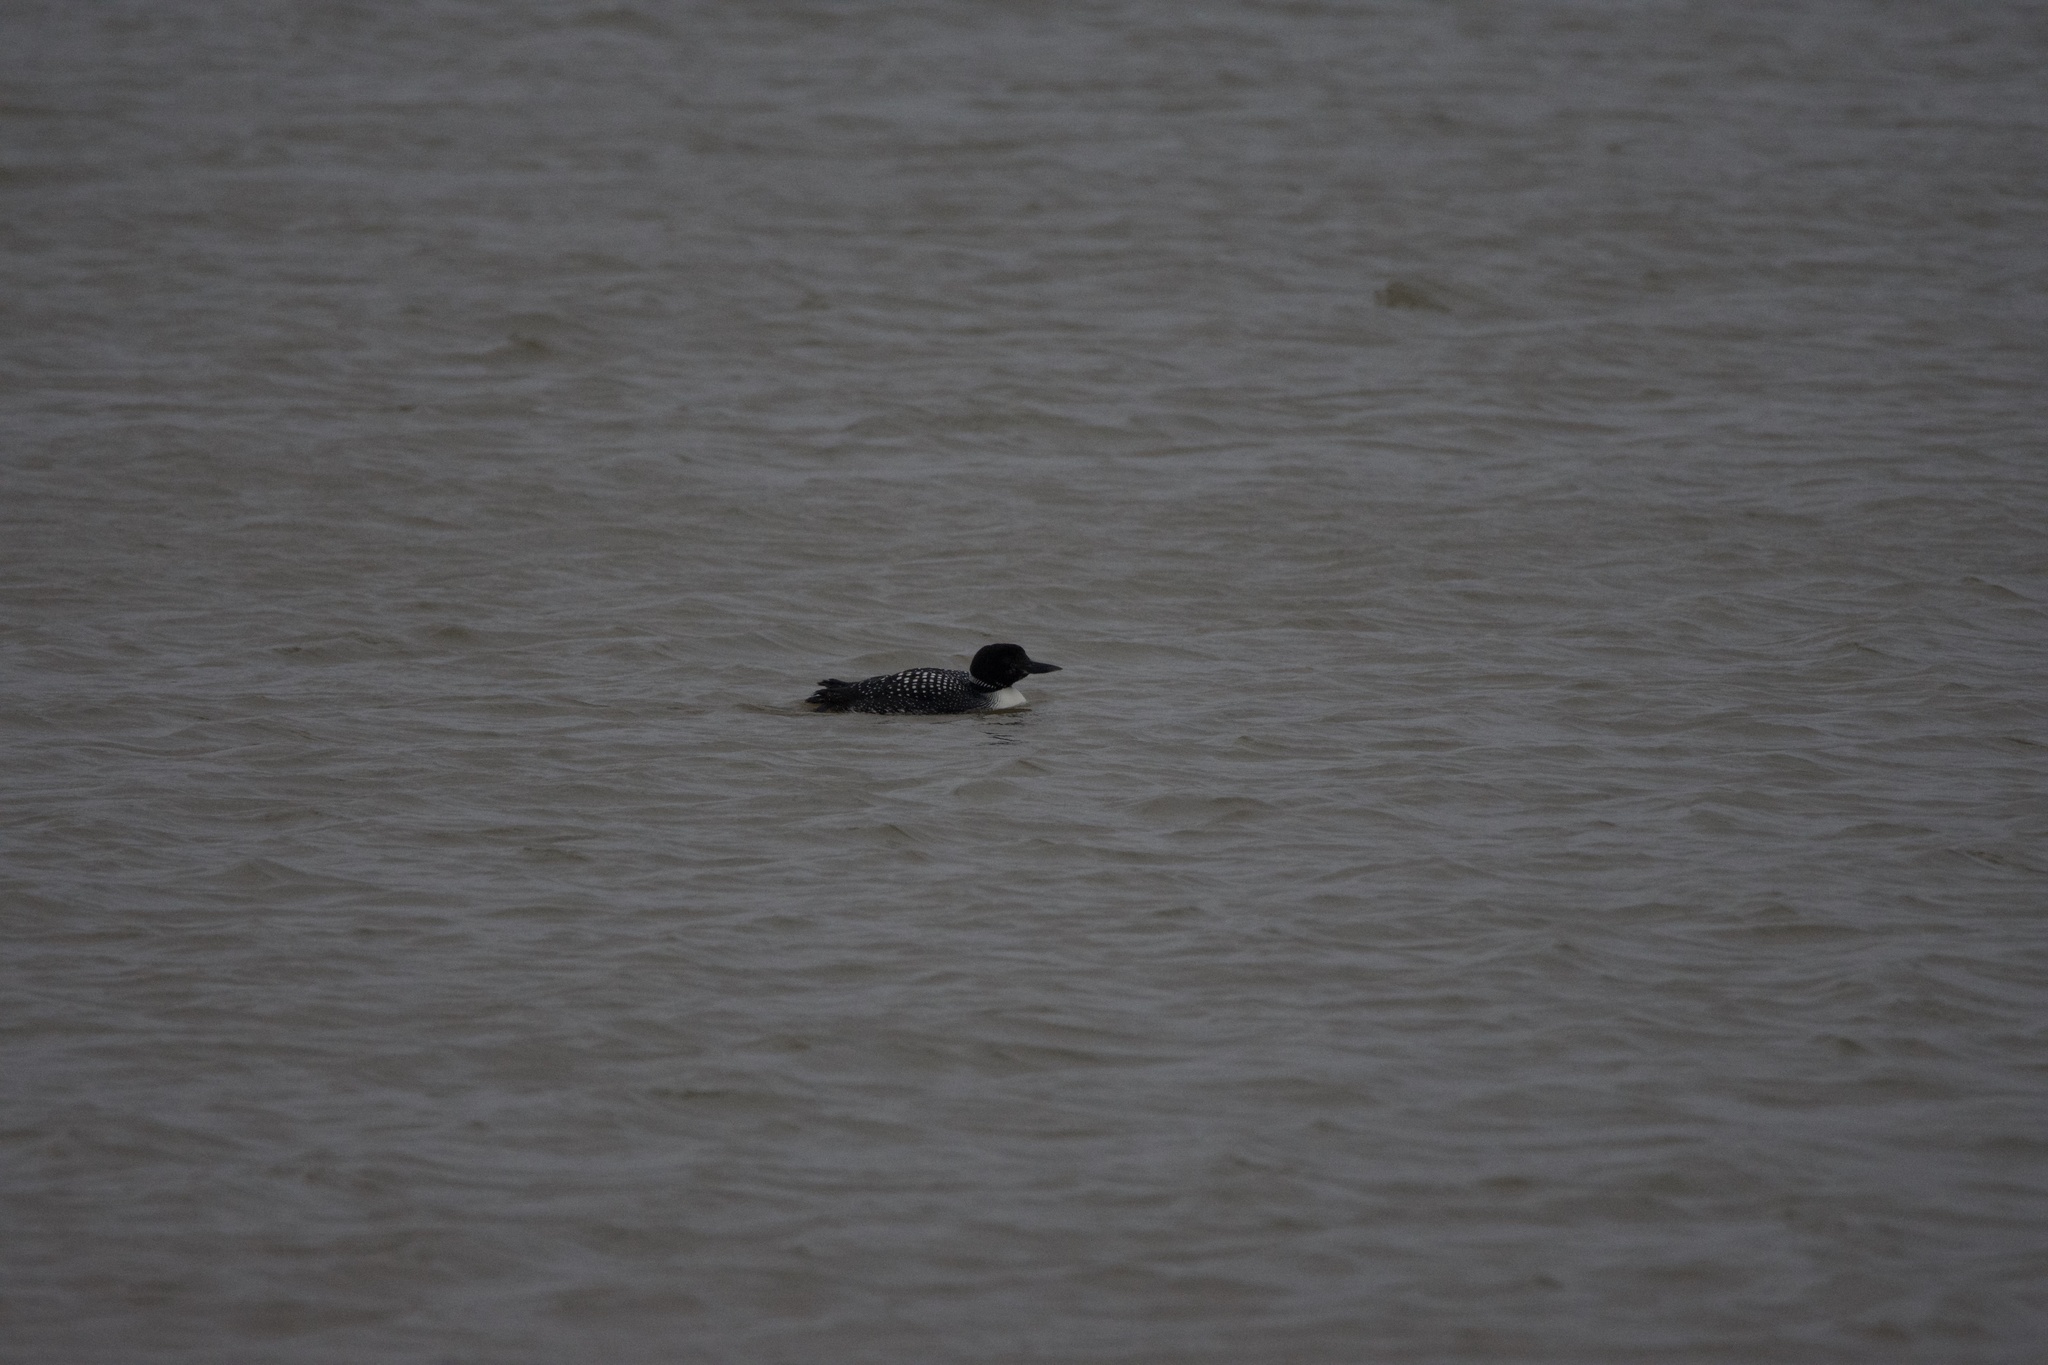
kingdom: Animalia
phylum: Chordata
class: Aves
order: Gaviiformes
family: Gaviidae
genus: Gavia
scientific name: Gavia immer
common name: Common loon
